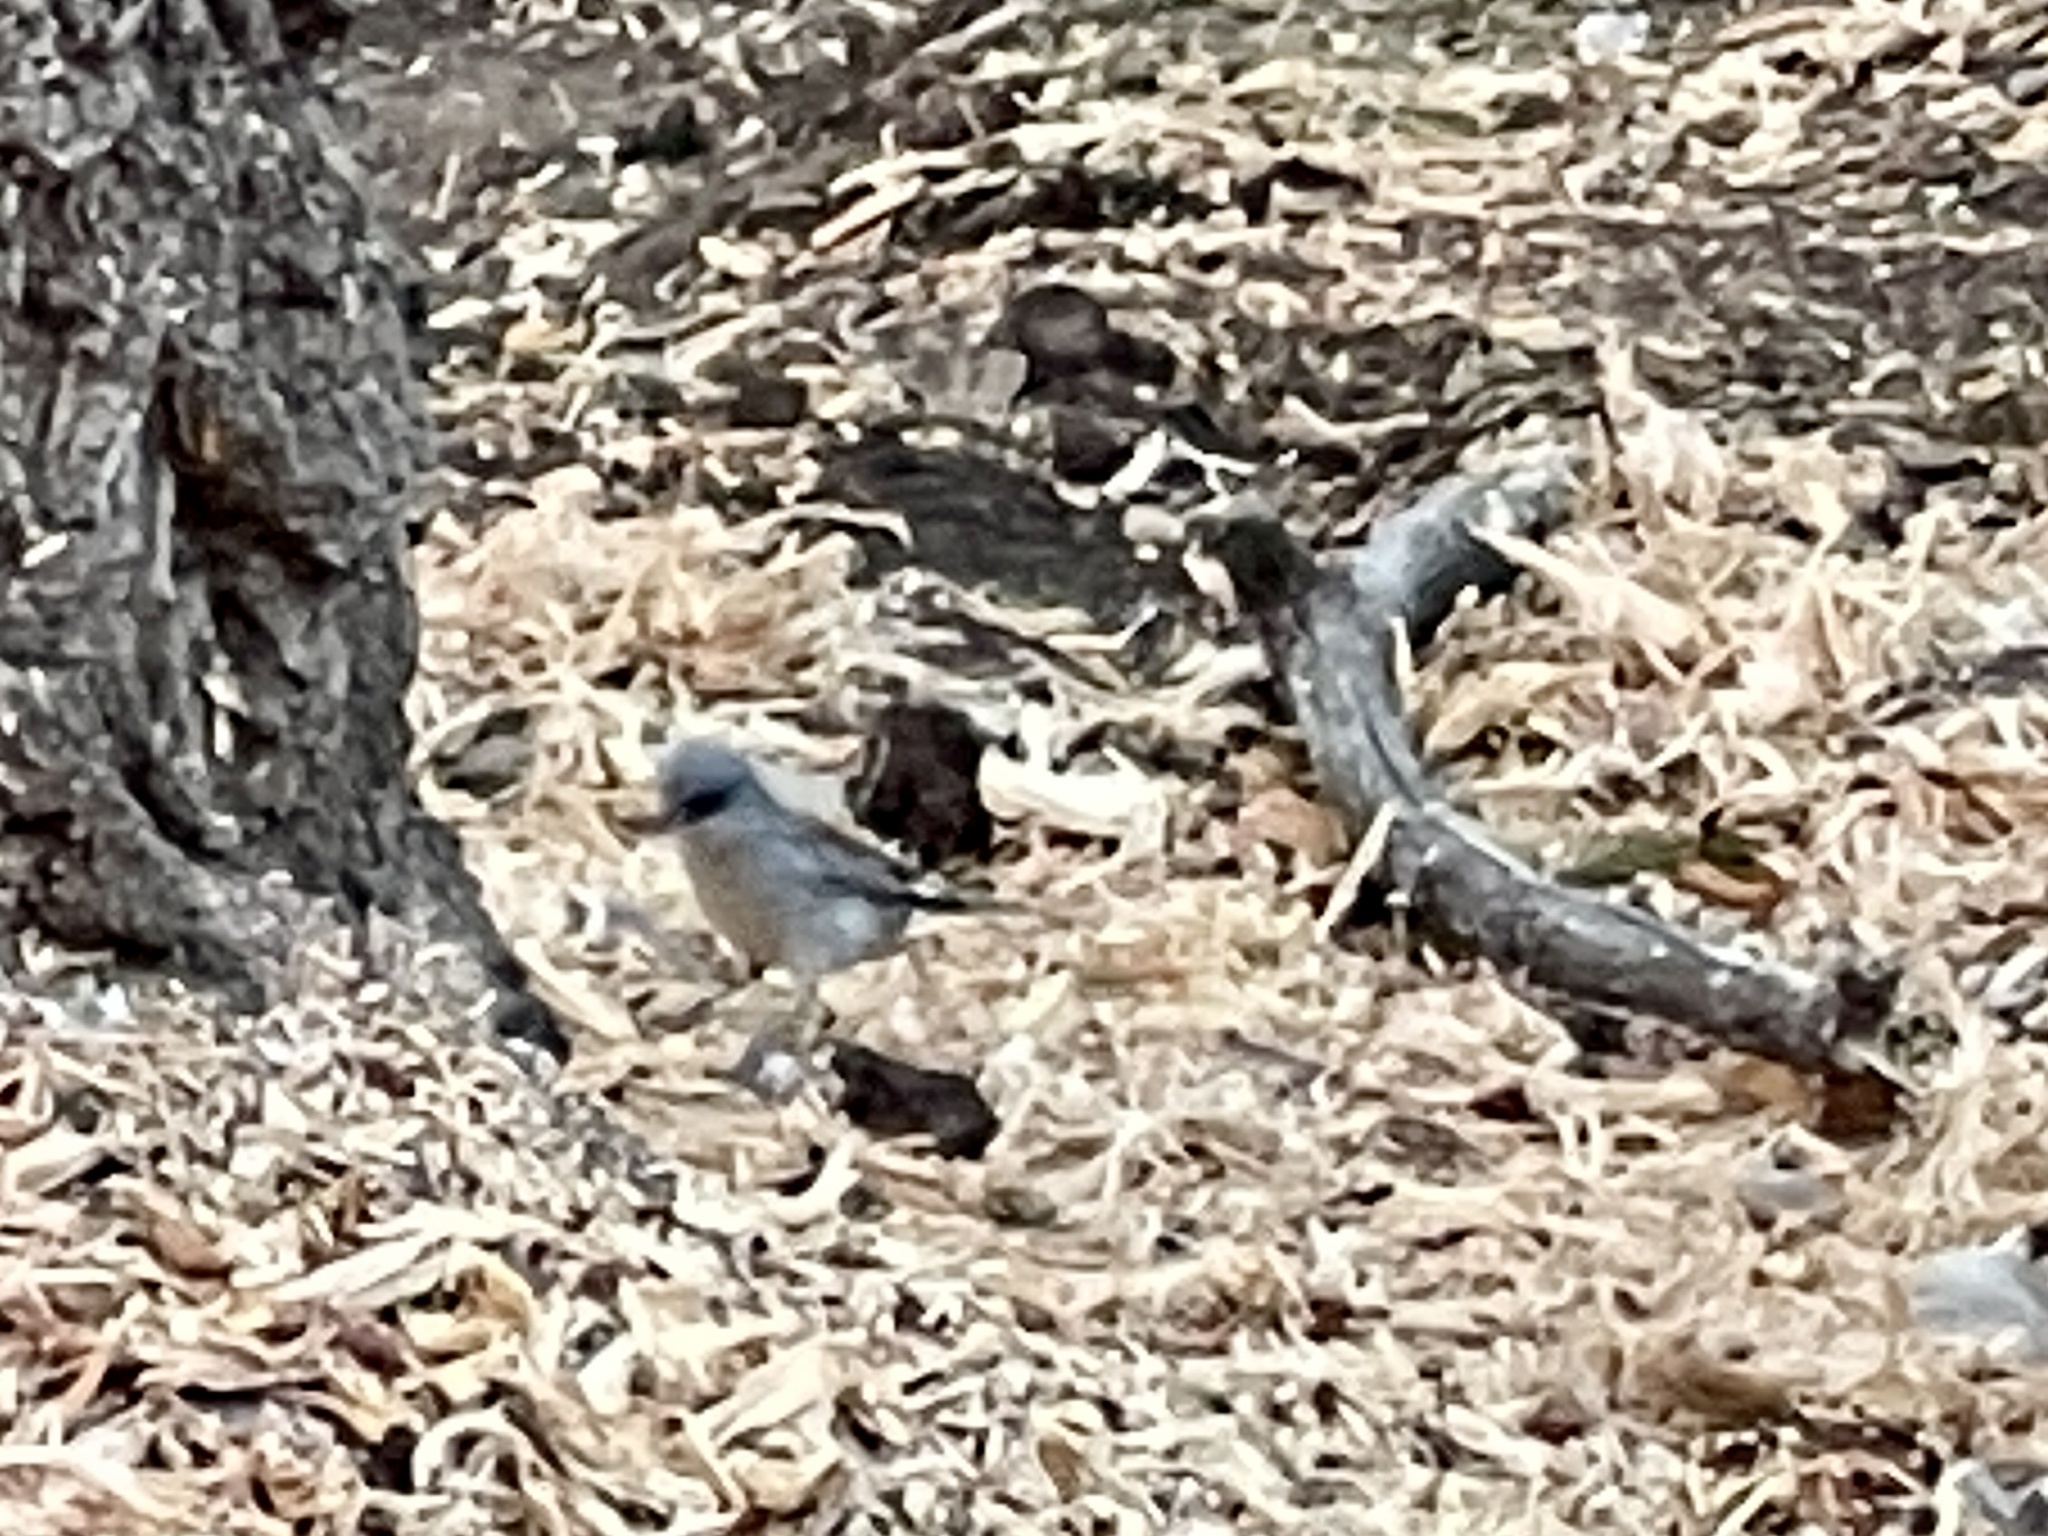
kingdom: Animalia
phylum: Chordata
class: Aves
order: Passeriformes
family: Passerellidae
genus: Junco
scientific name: Junco hyemalis
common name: Dark-eyed junco
